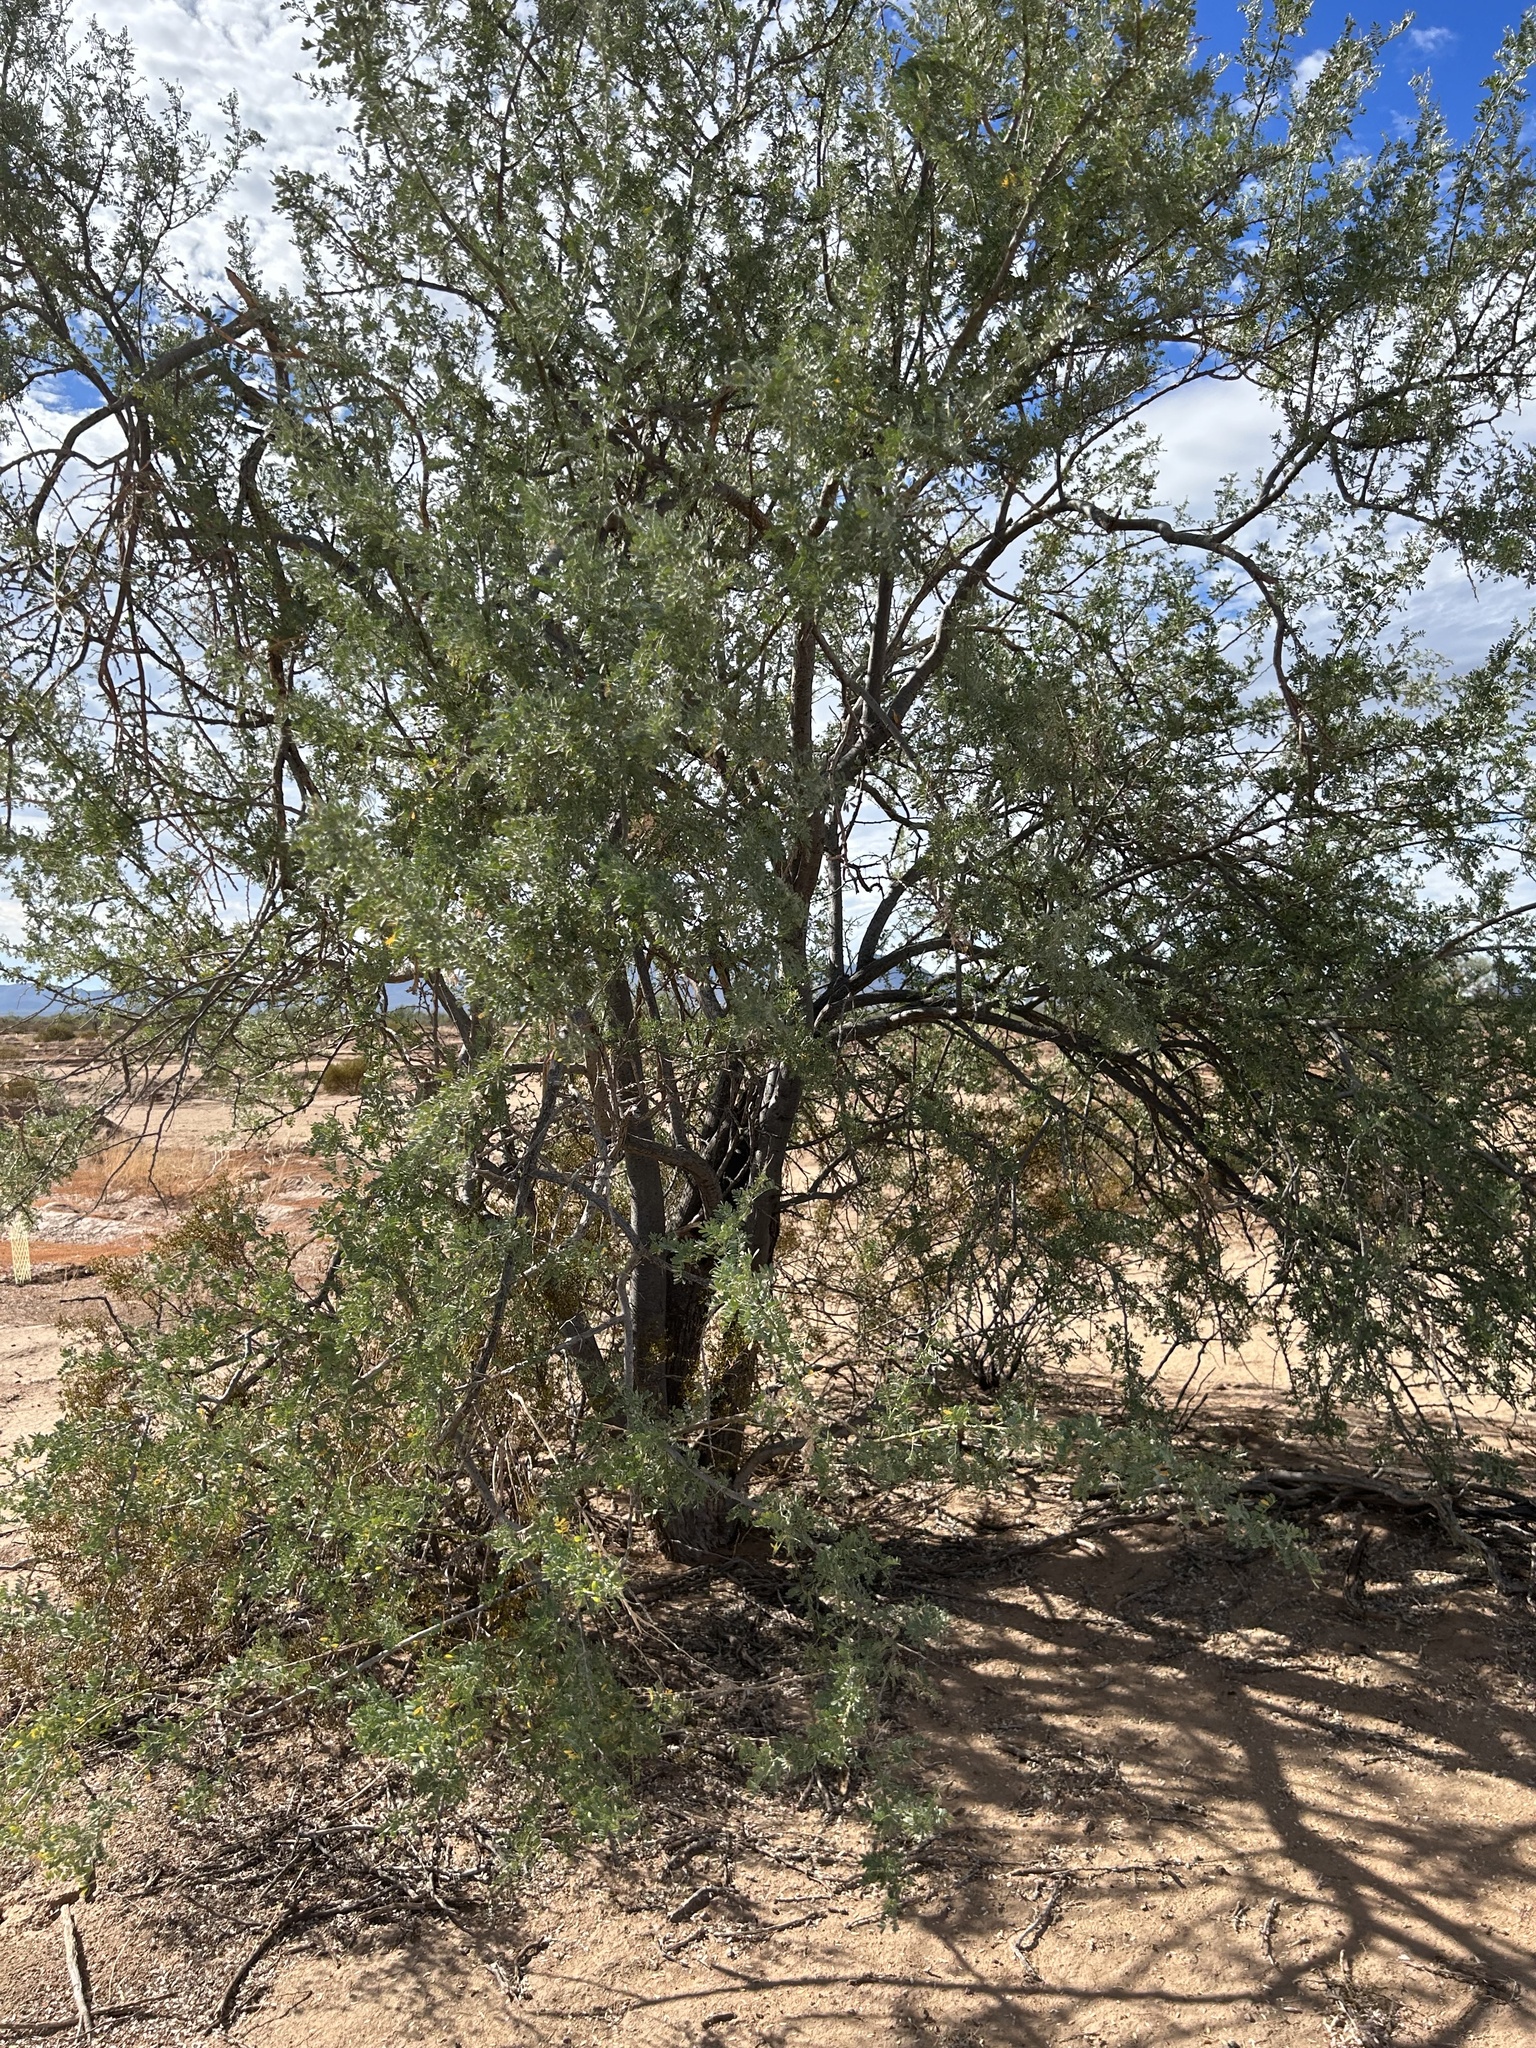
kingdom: Plantae
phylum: Tracheophyta
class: Magnoliopsida
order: Fabales
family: Fabaceae
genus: Olneya
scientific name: Olneya tesota
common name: Desert ironwood
